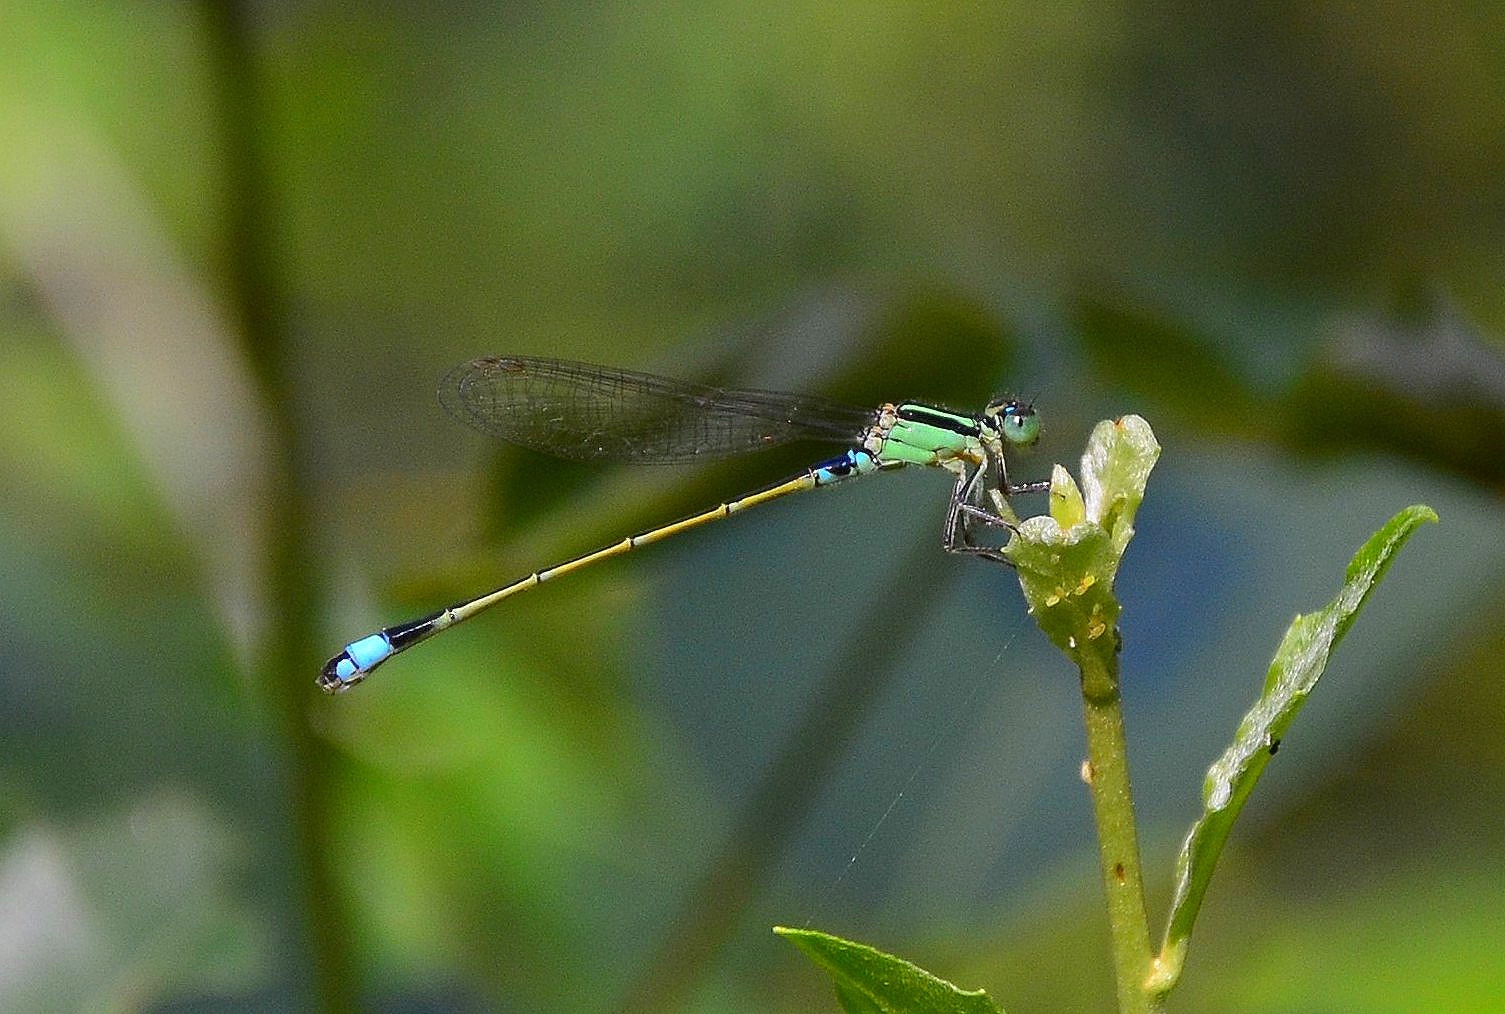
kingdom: Animalia
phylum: Arthropoda
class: Insecta
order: Odonata
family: Coenagrionidae
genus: Ischnura
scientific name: Ischnura senegalensis
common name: Tropical bluetail
